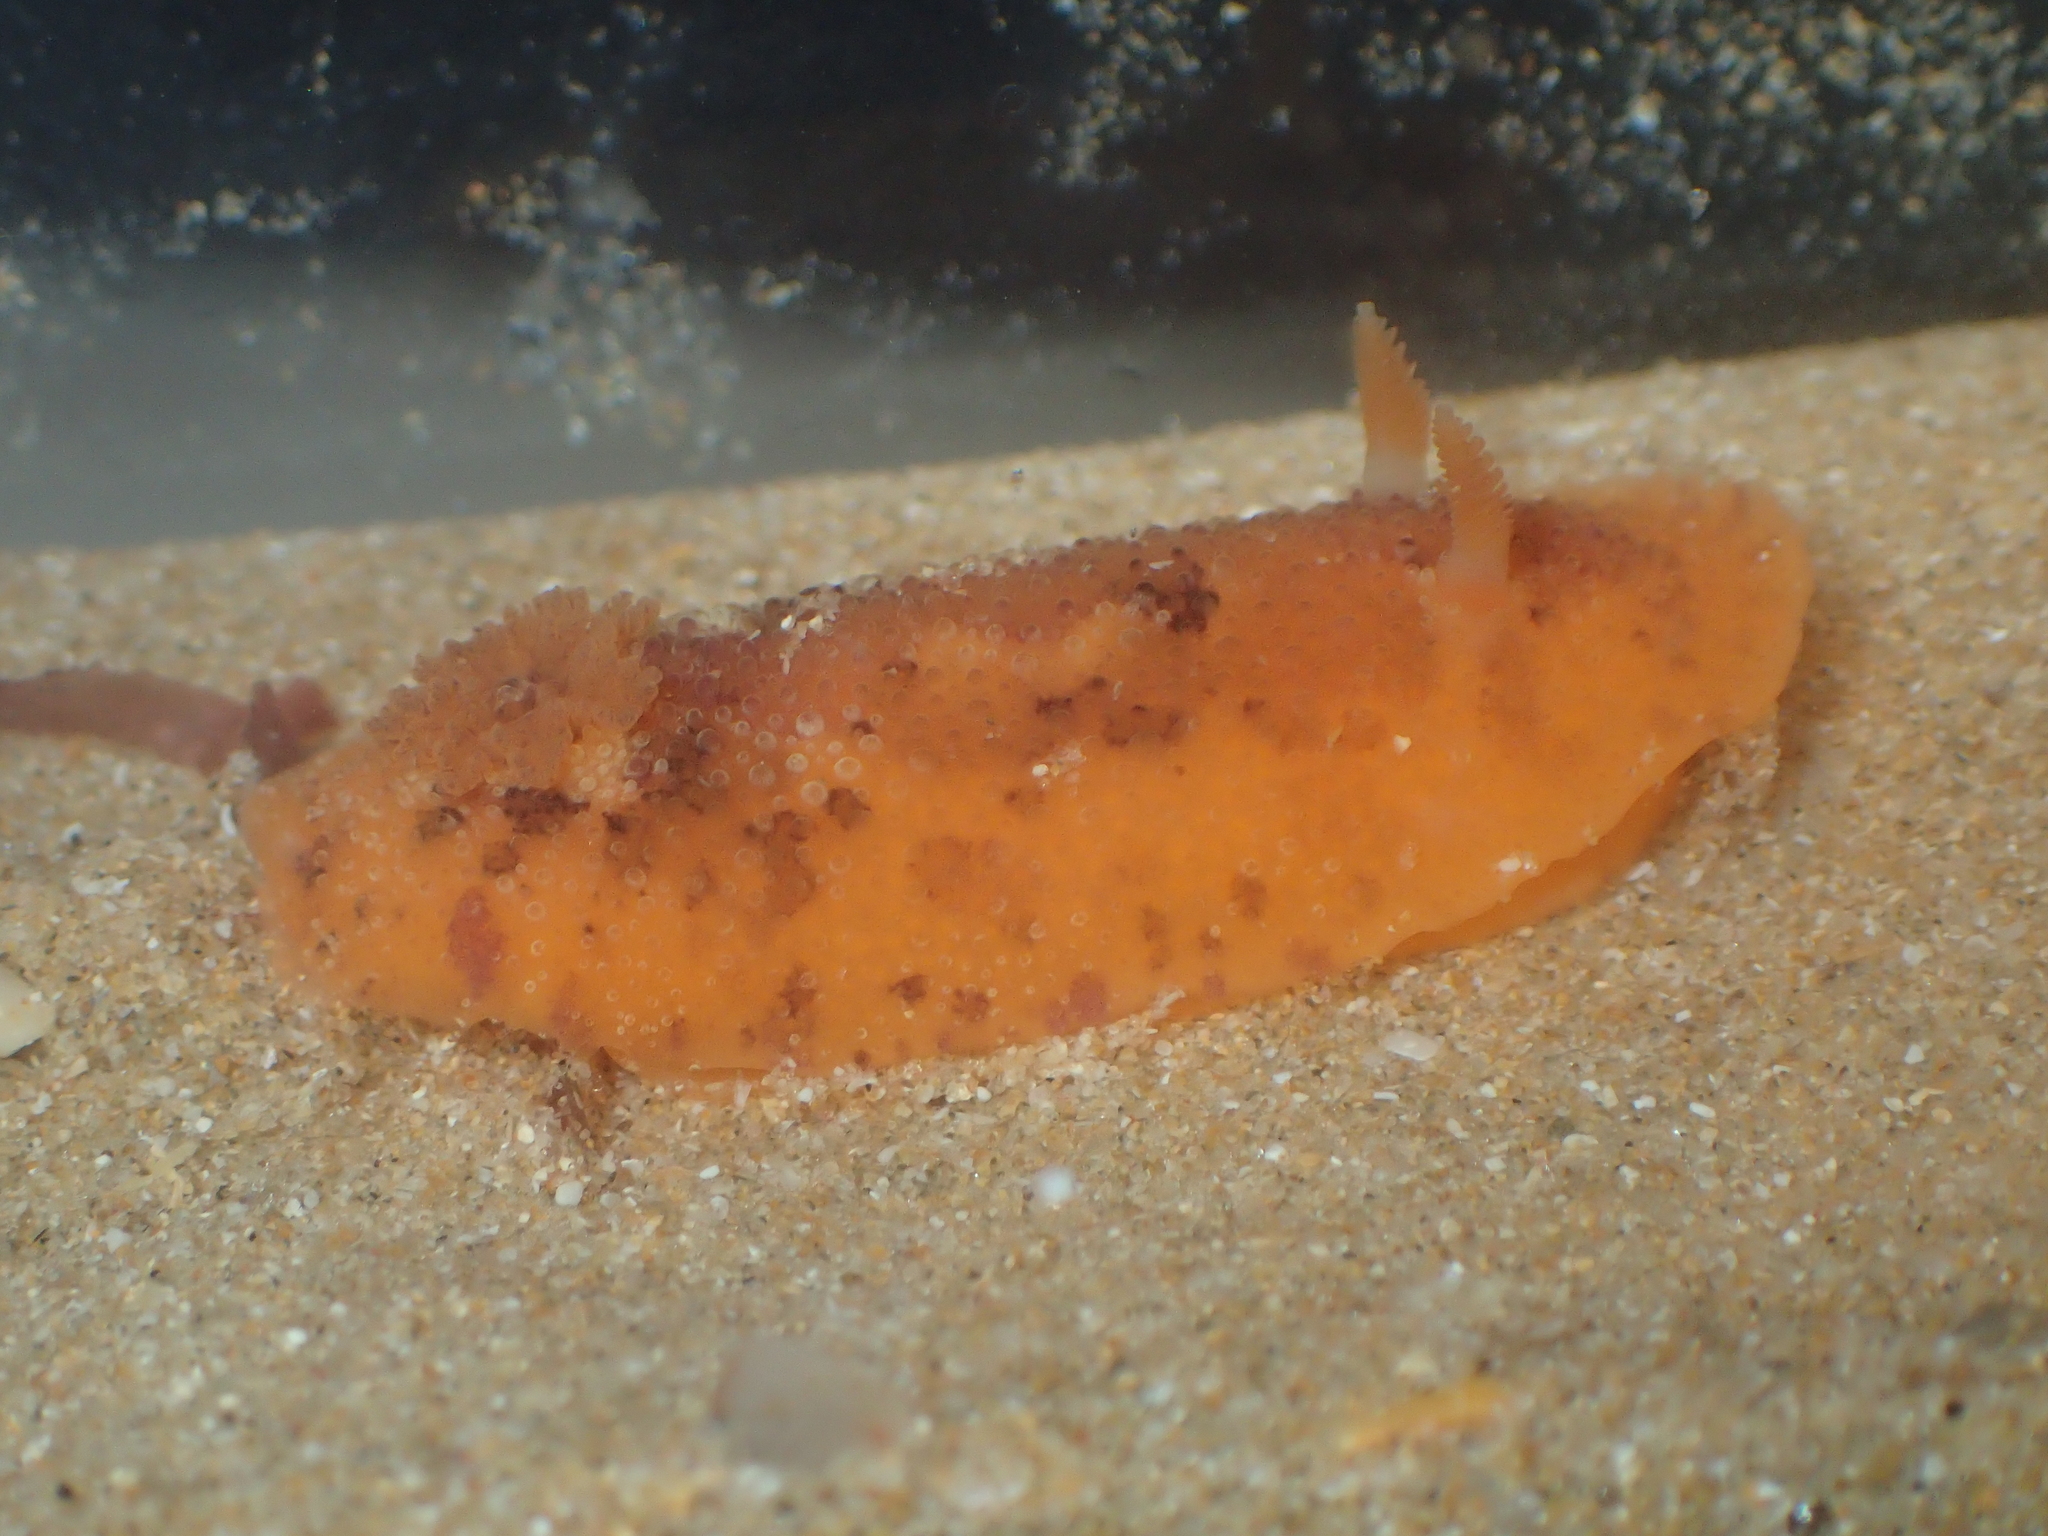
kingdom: Animalia
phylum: Mollusca
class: Gastropoda
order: Nudibranchia
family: Dorididae
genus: Doris
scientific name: Doris pseudoargus
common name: Sea lemon
